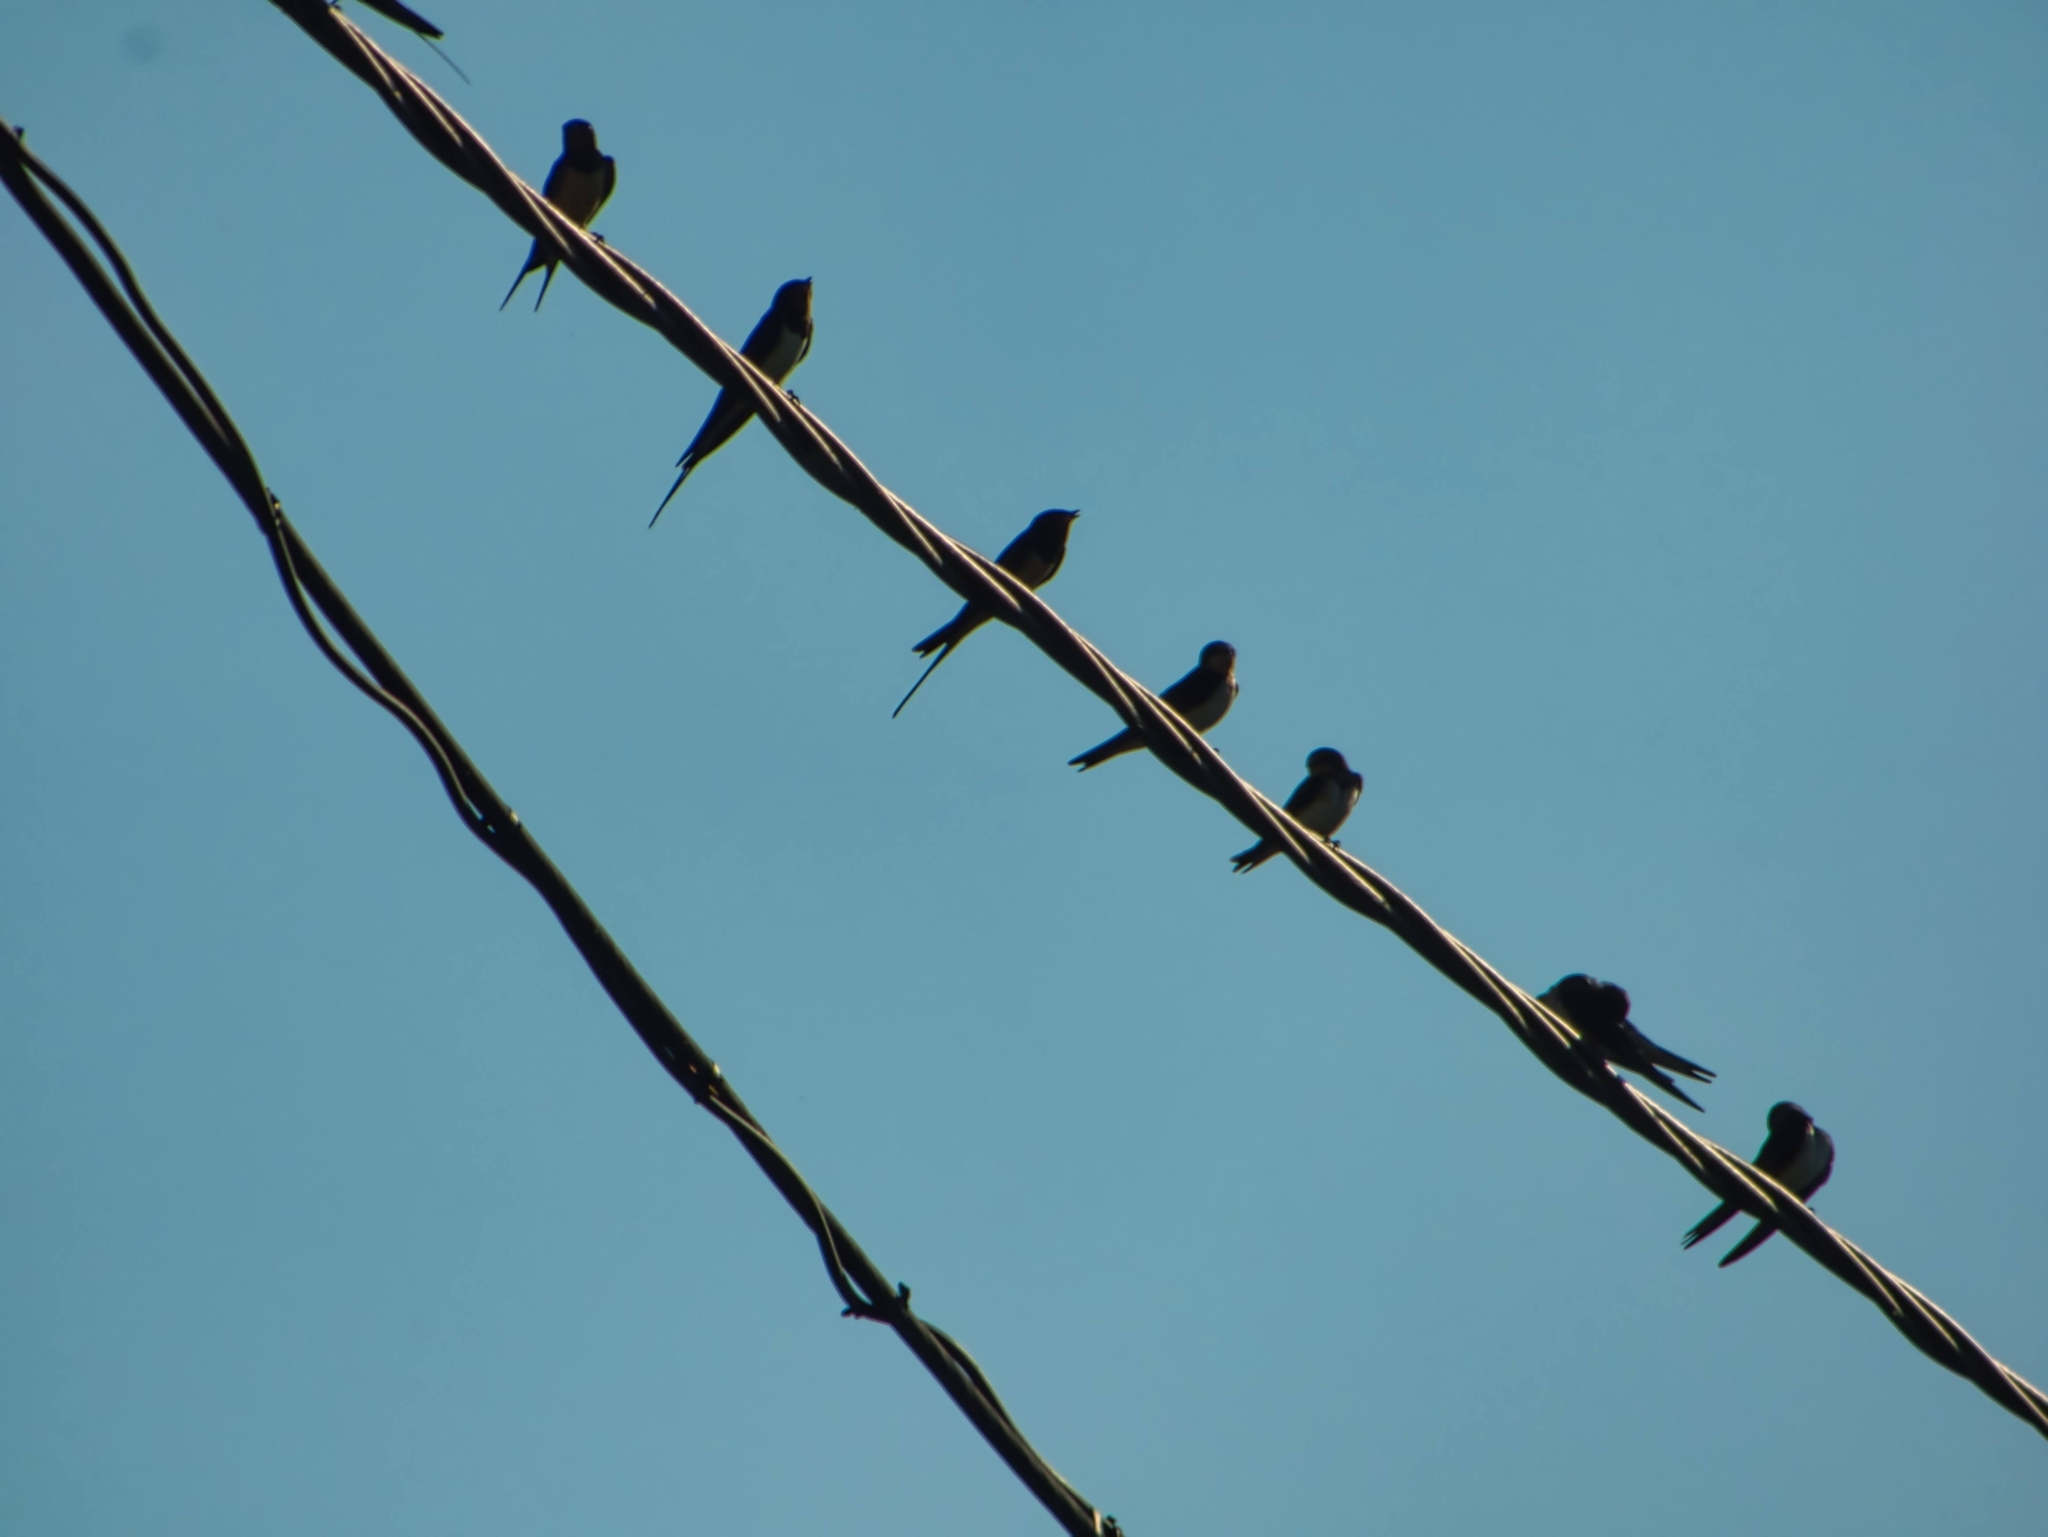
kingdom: Animalia
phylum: Chordata
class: Aves
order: Passeriformes
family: Hirundinidae
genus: Hirundo
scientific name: Hirundo rustica
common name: Barn swallow
